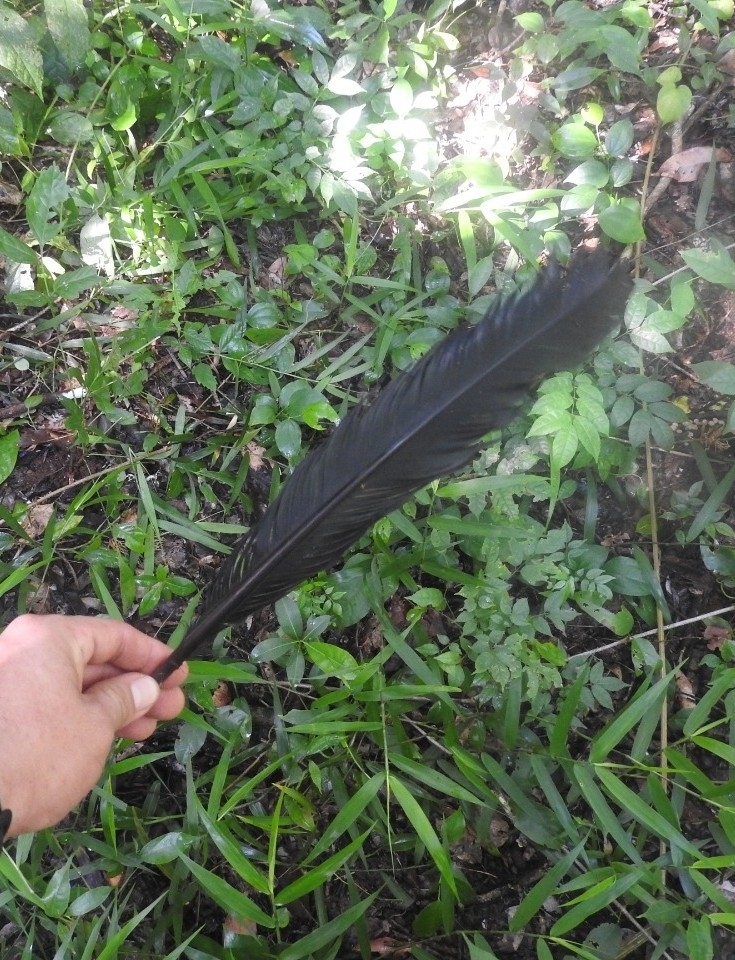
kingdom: Animalia
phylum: Chordata
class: Aves
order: Galliformes
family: Cracidae
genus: Crax
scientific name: Crax rubra
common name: Great curassow
